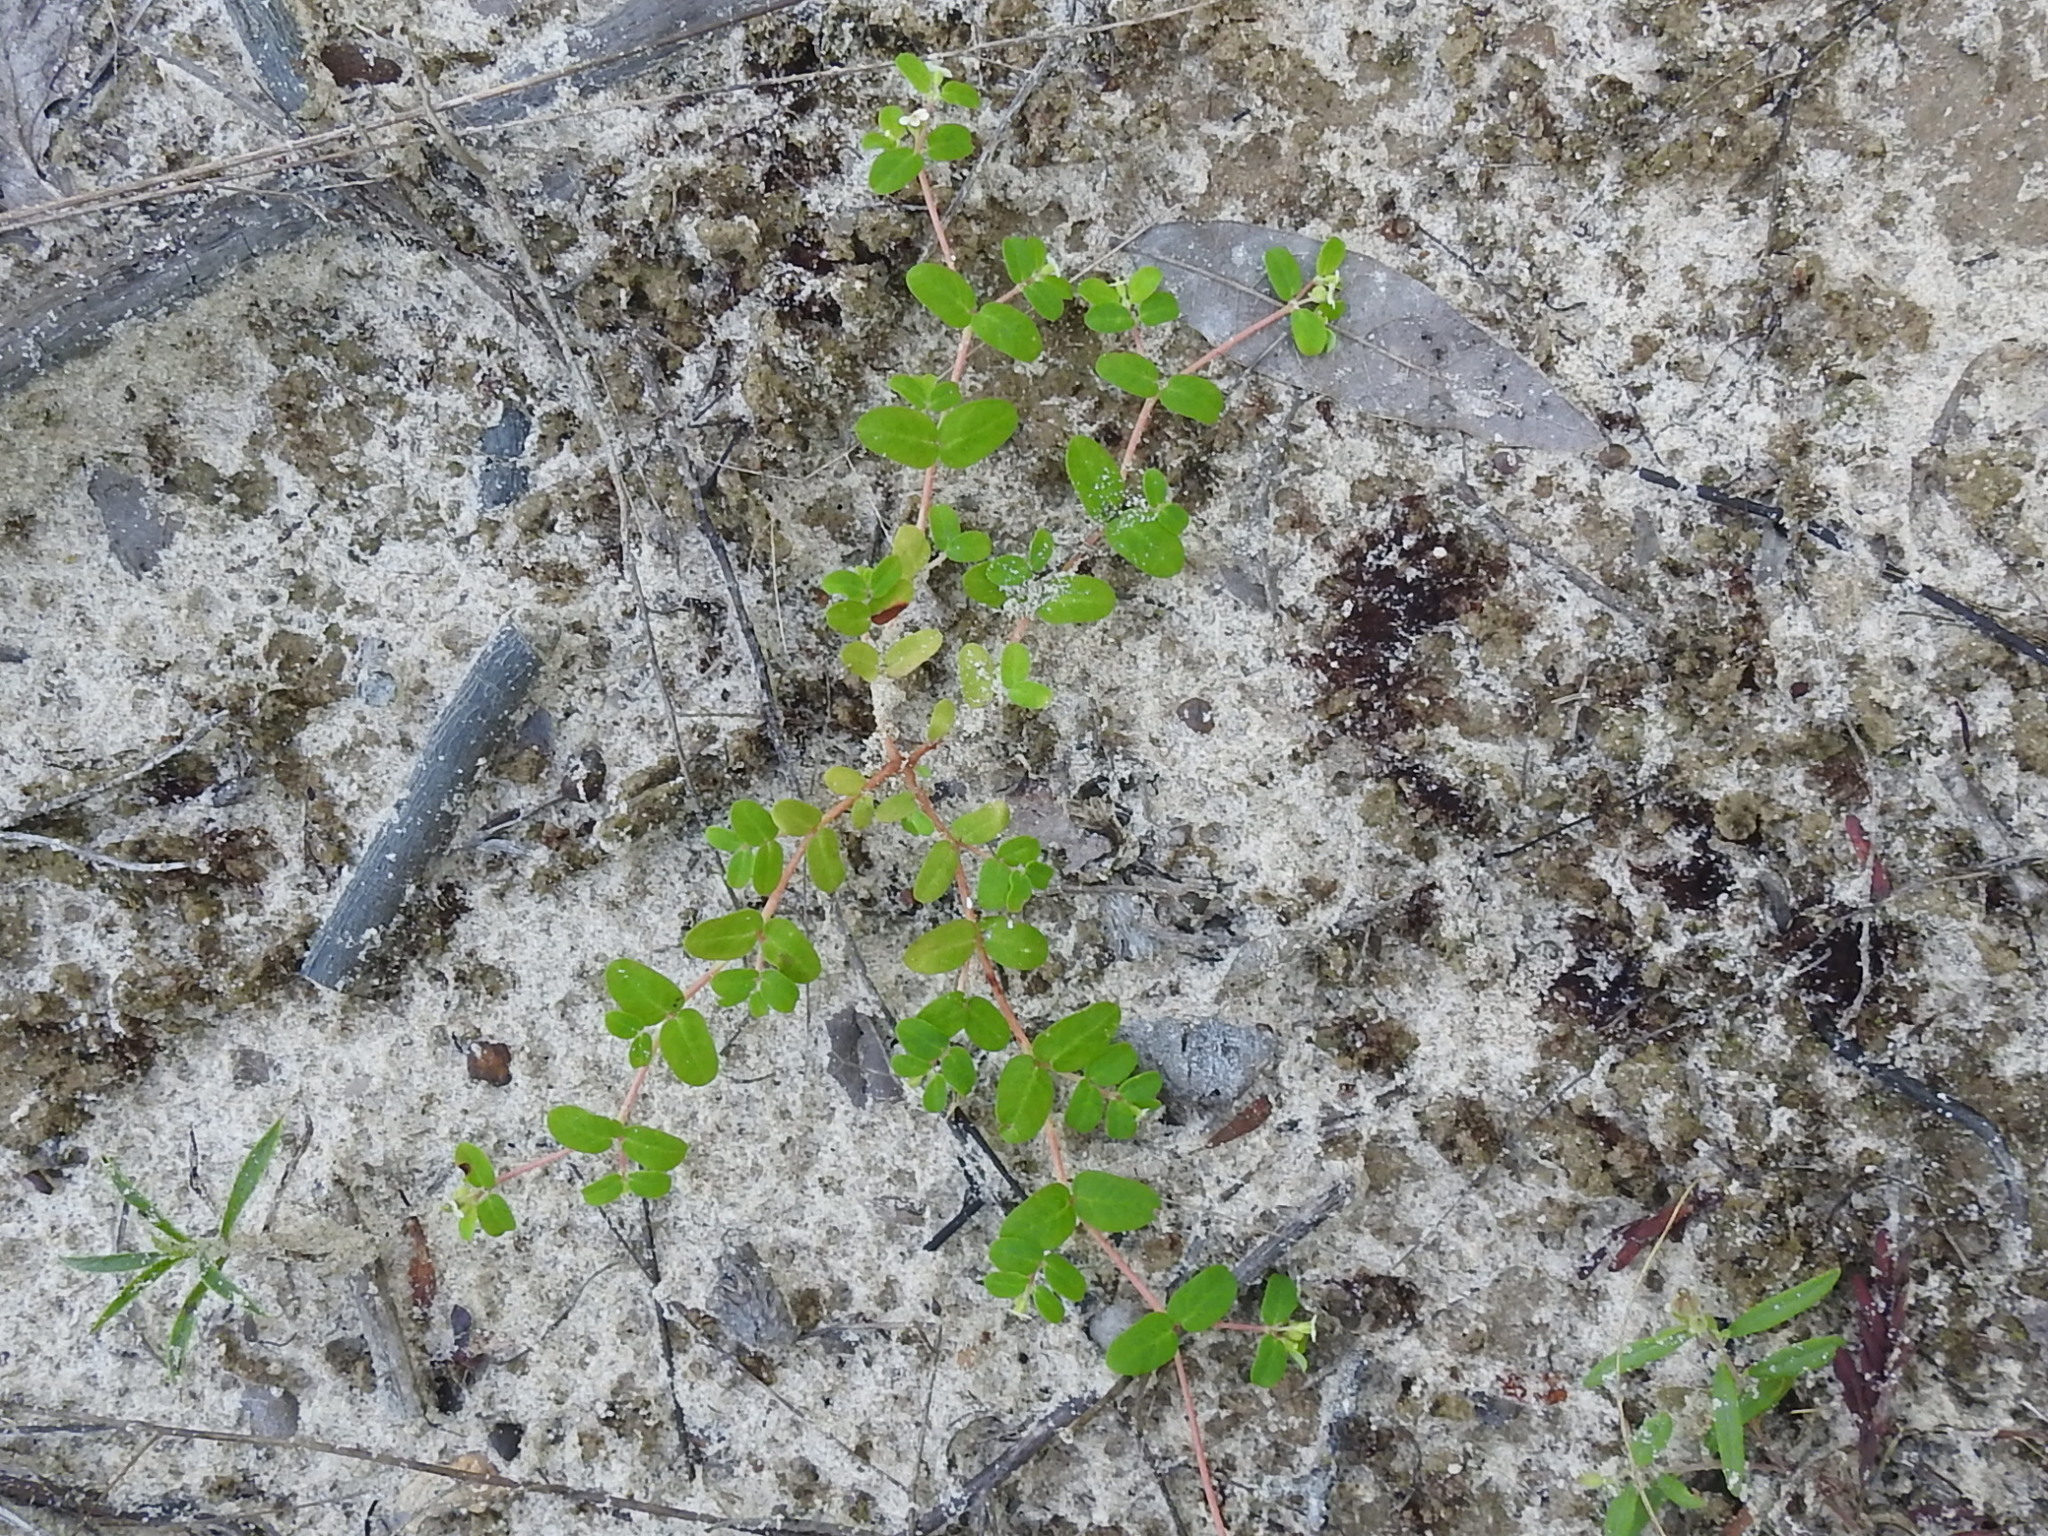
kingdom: Plantae
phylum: Tracheophyta
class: Magnoliopsida
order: Malpighiales
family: Euphorbiaceae
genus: Euphorbia
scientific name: Euphorbia cordifolia
